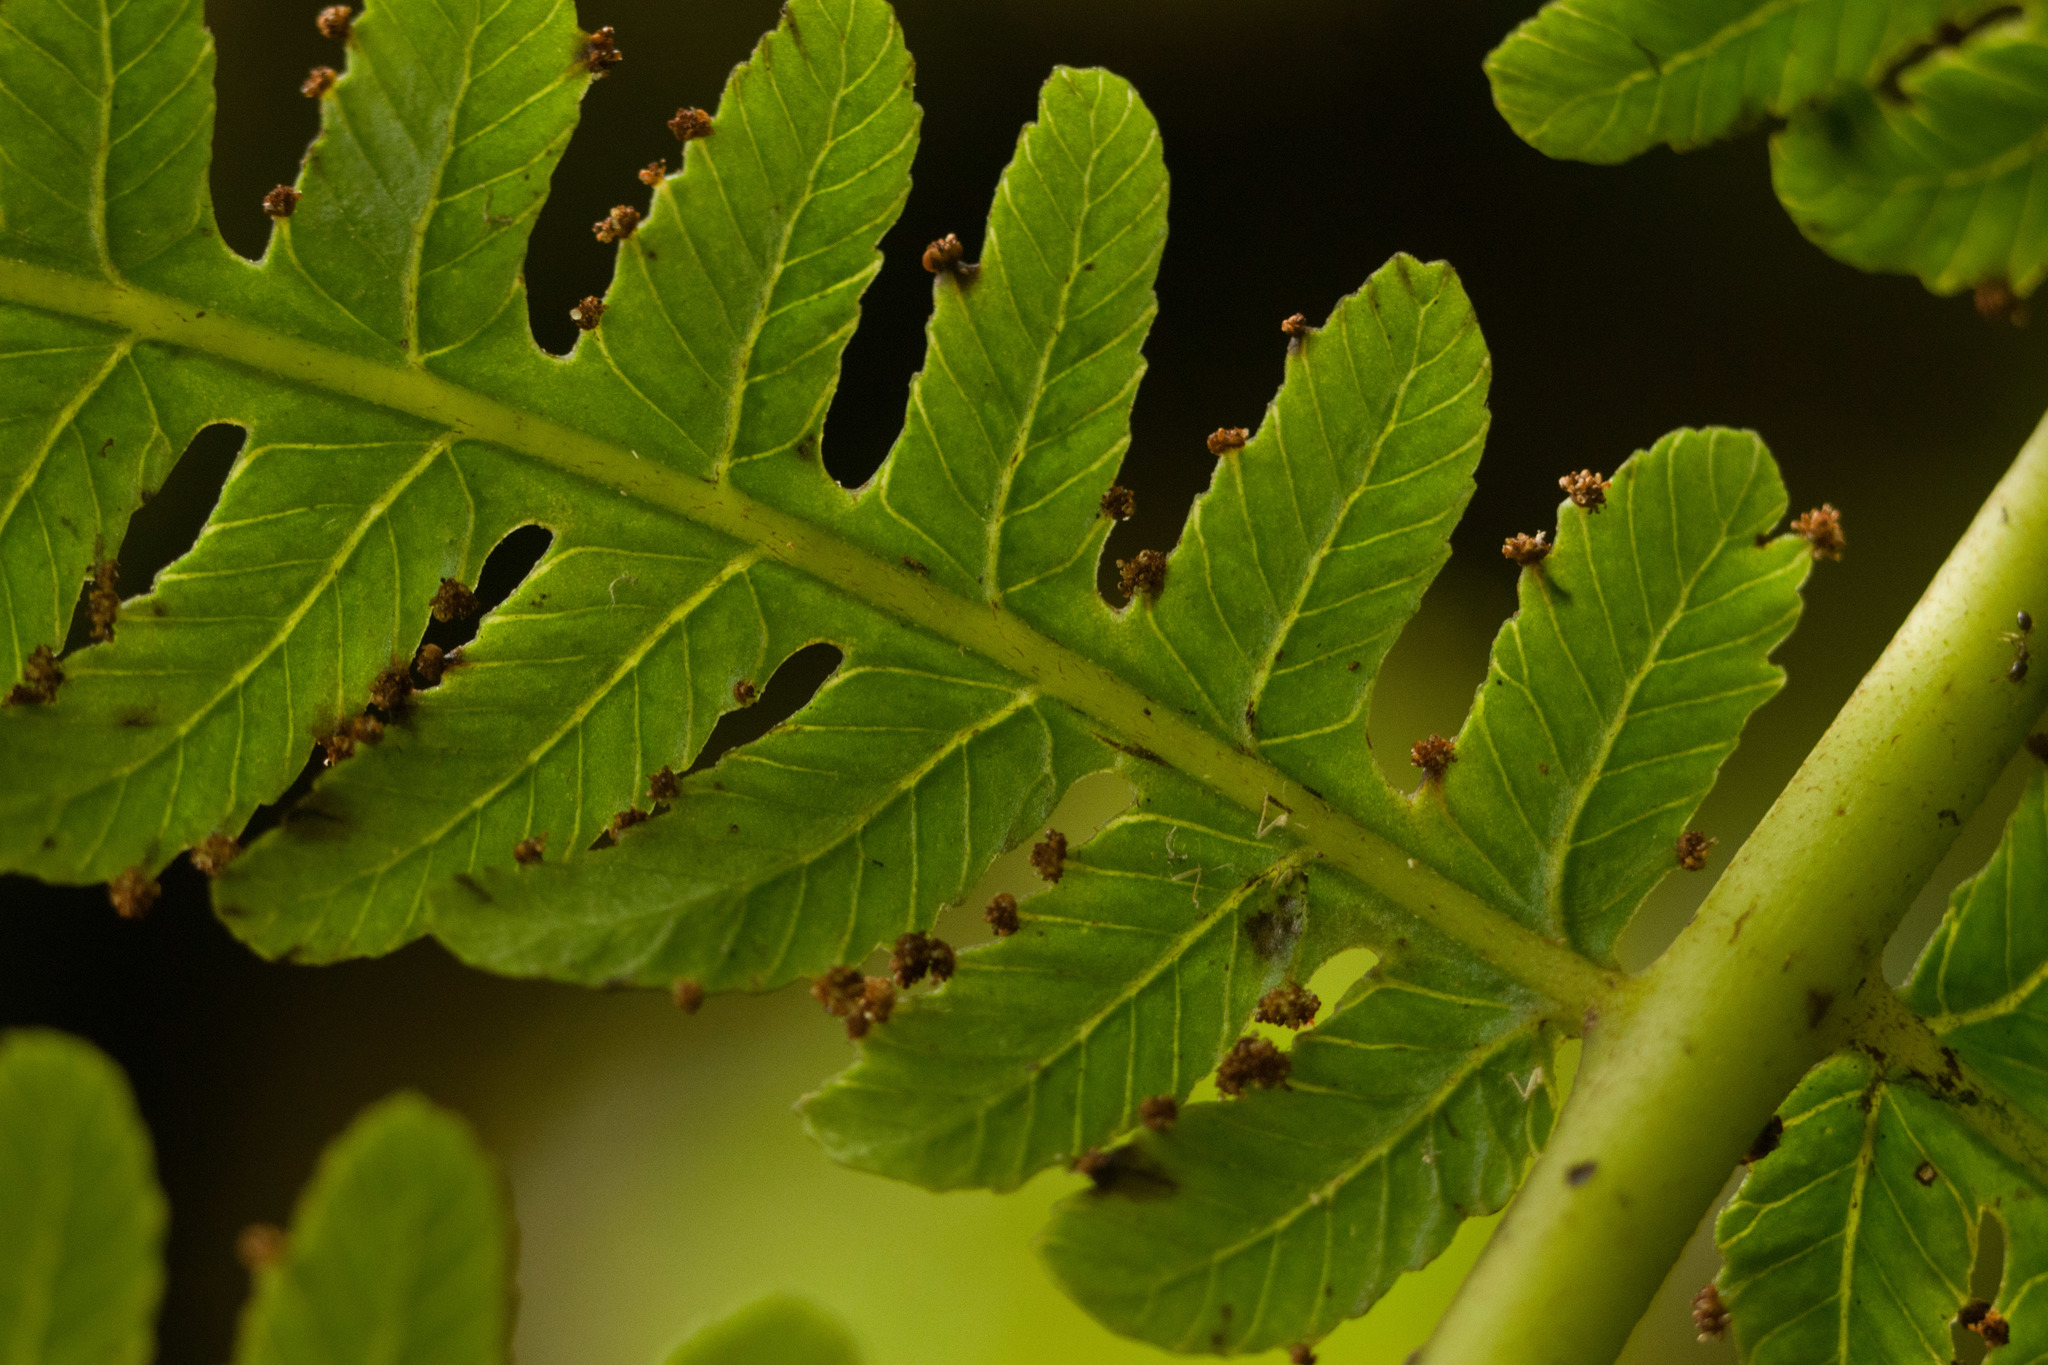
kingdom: Plantae
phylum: Tracheophyta
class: Polypodiopsida
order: Polypodiales
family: Athyriaceae
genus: Deparia
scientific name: Deparia prolifera
